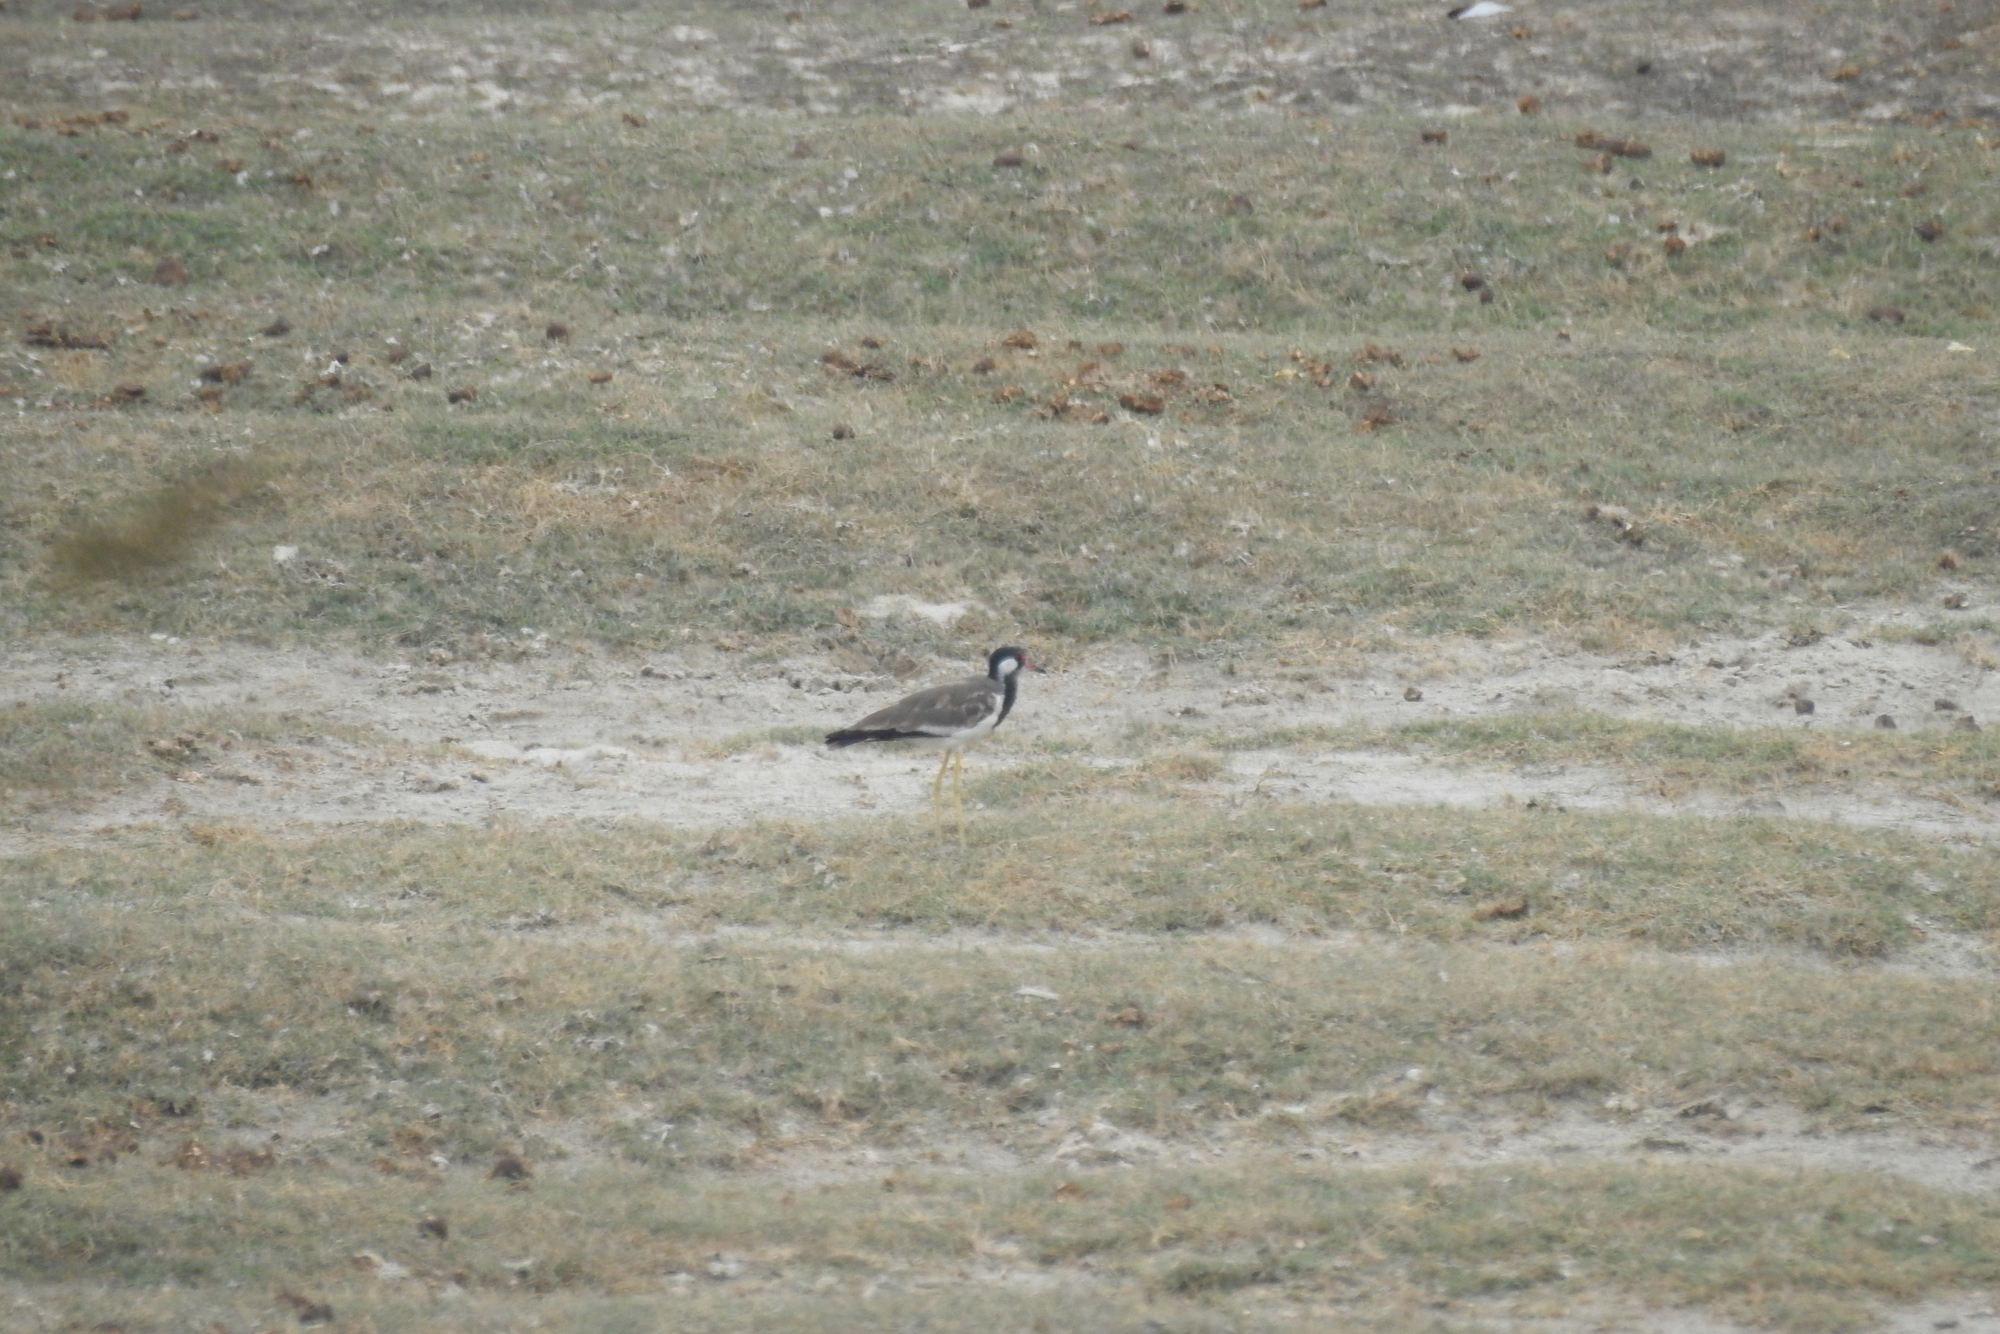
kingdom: Animalia
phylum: Chordata
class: Aves
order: Charadriiformes
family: Charadriidae
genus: Vanellus
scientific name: Vanellus indicus
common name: Red-wattled lapwing
